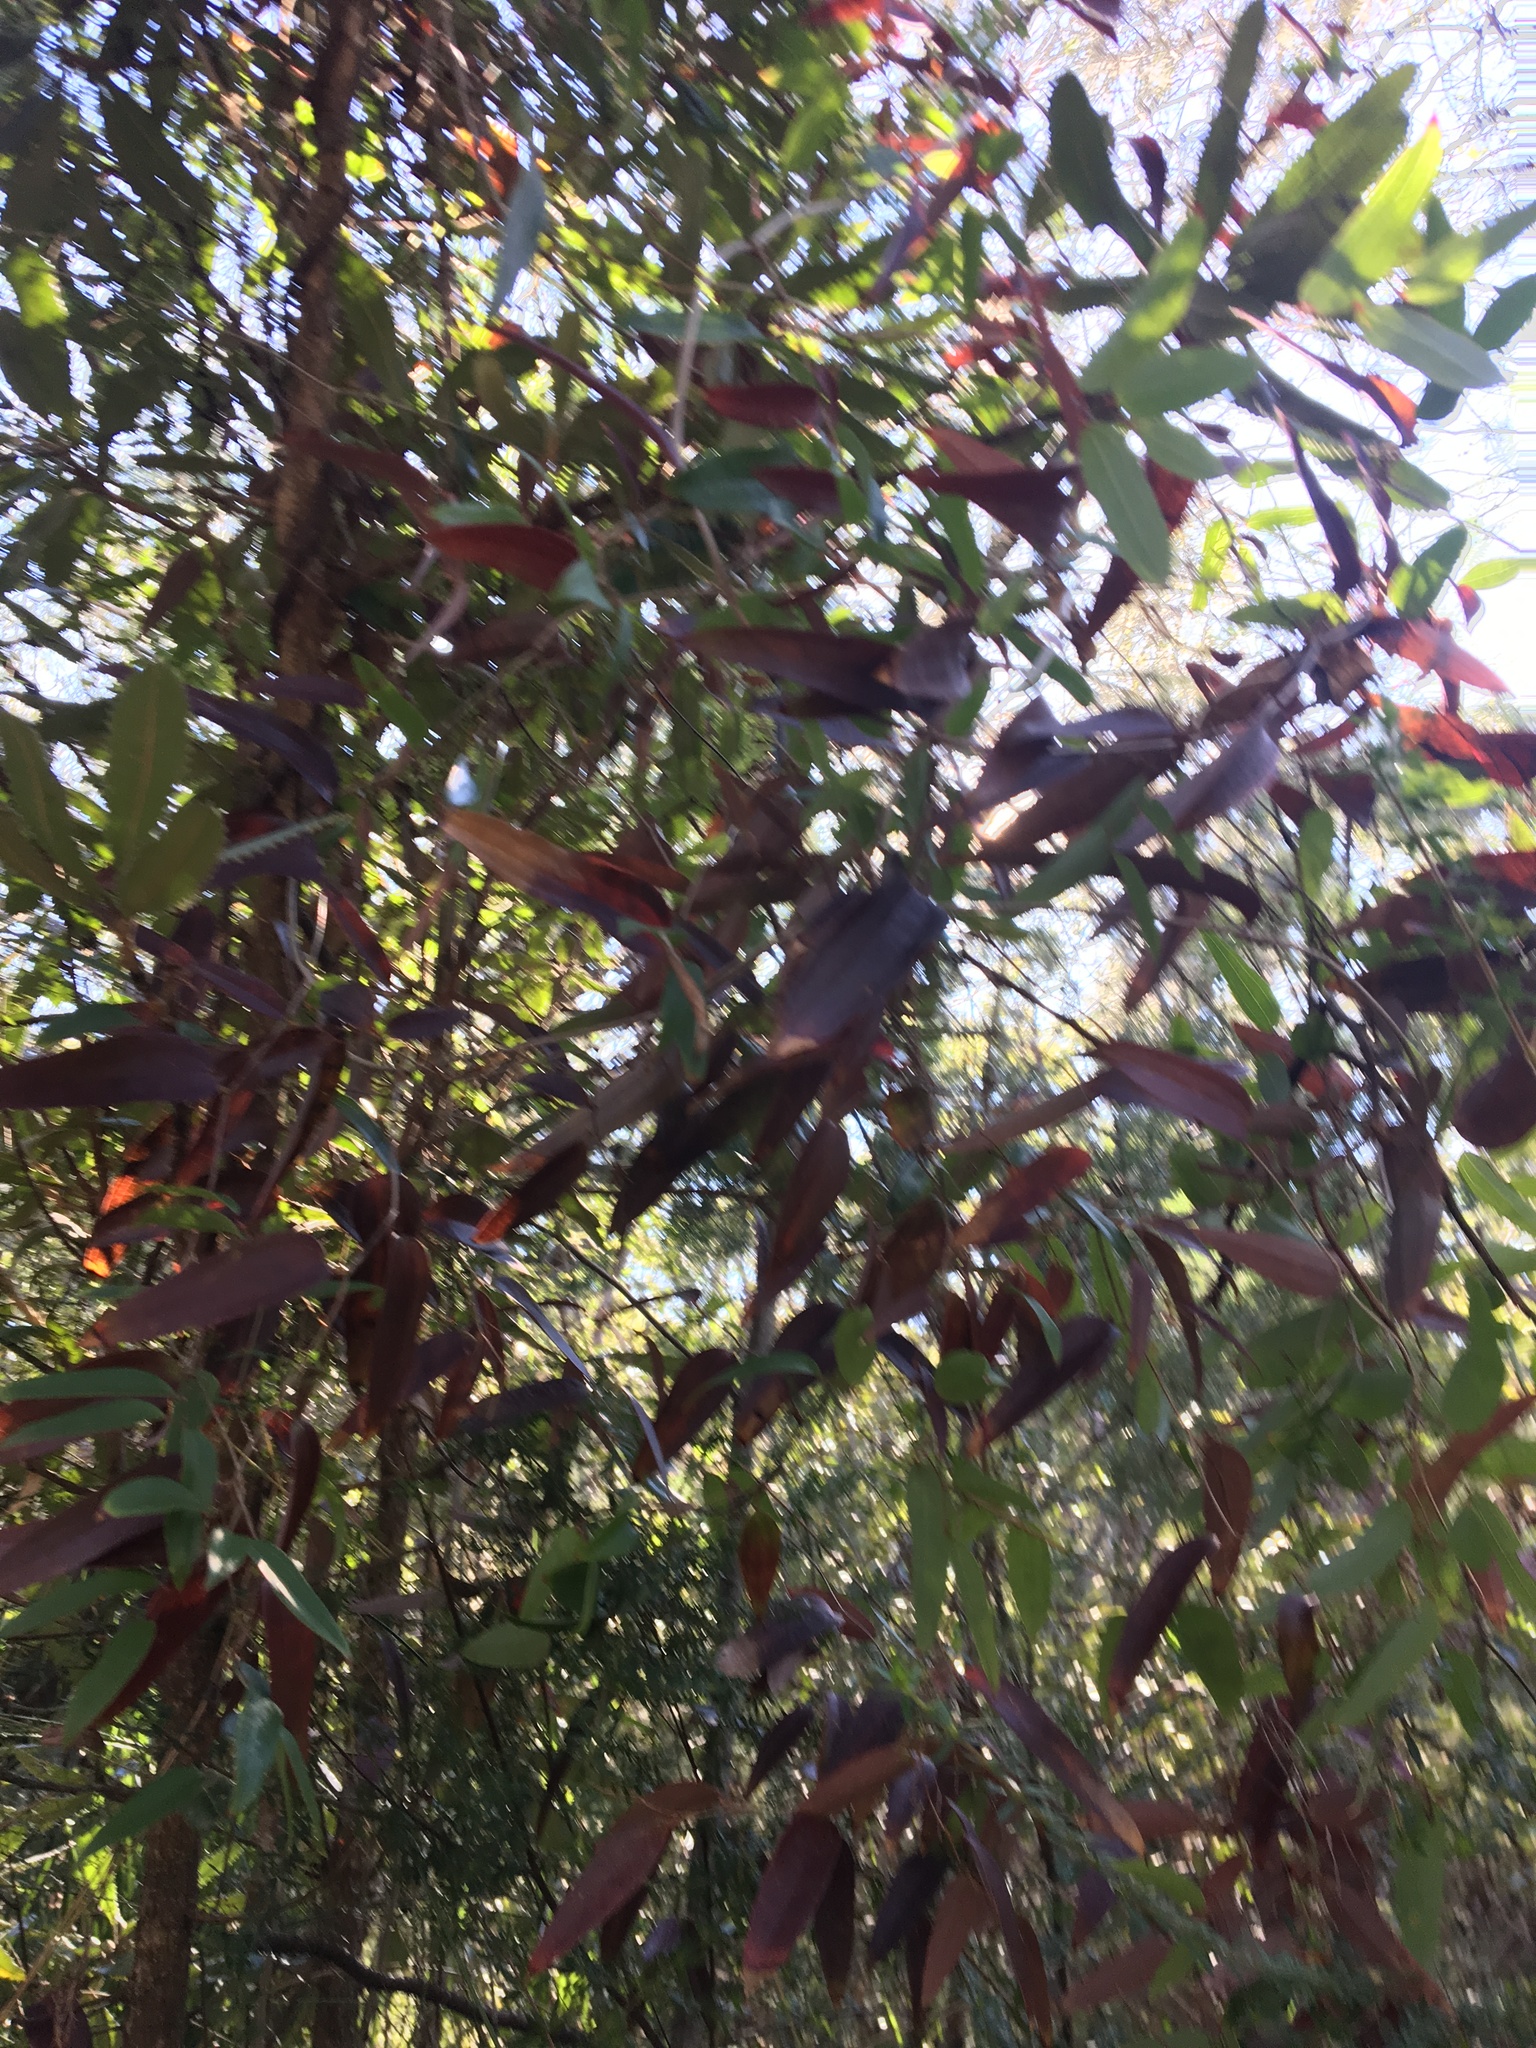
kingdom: Plantae
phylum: Tracheophyta
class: Liliopsida
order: Liliales
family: Smilacaceae
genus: Smilax
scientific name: Smilax glyciphylla
